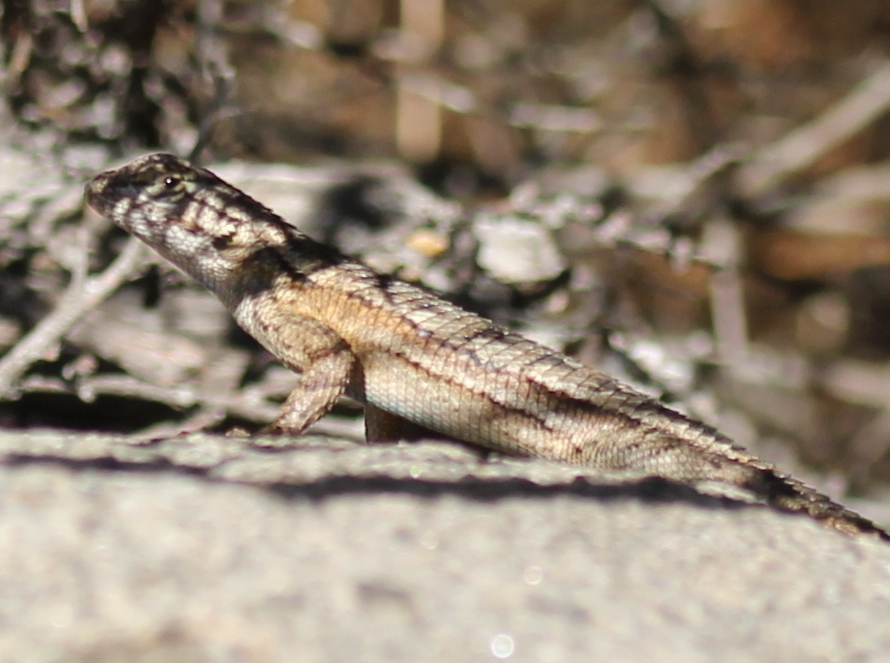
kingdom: Animalia
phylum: Chordata
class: Squamata
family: Phrynosomatidae
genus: Sceloporus
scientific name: Sceloporus occidentalis
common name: Western fence lizard
